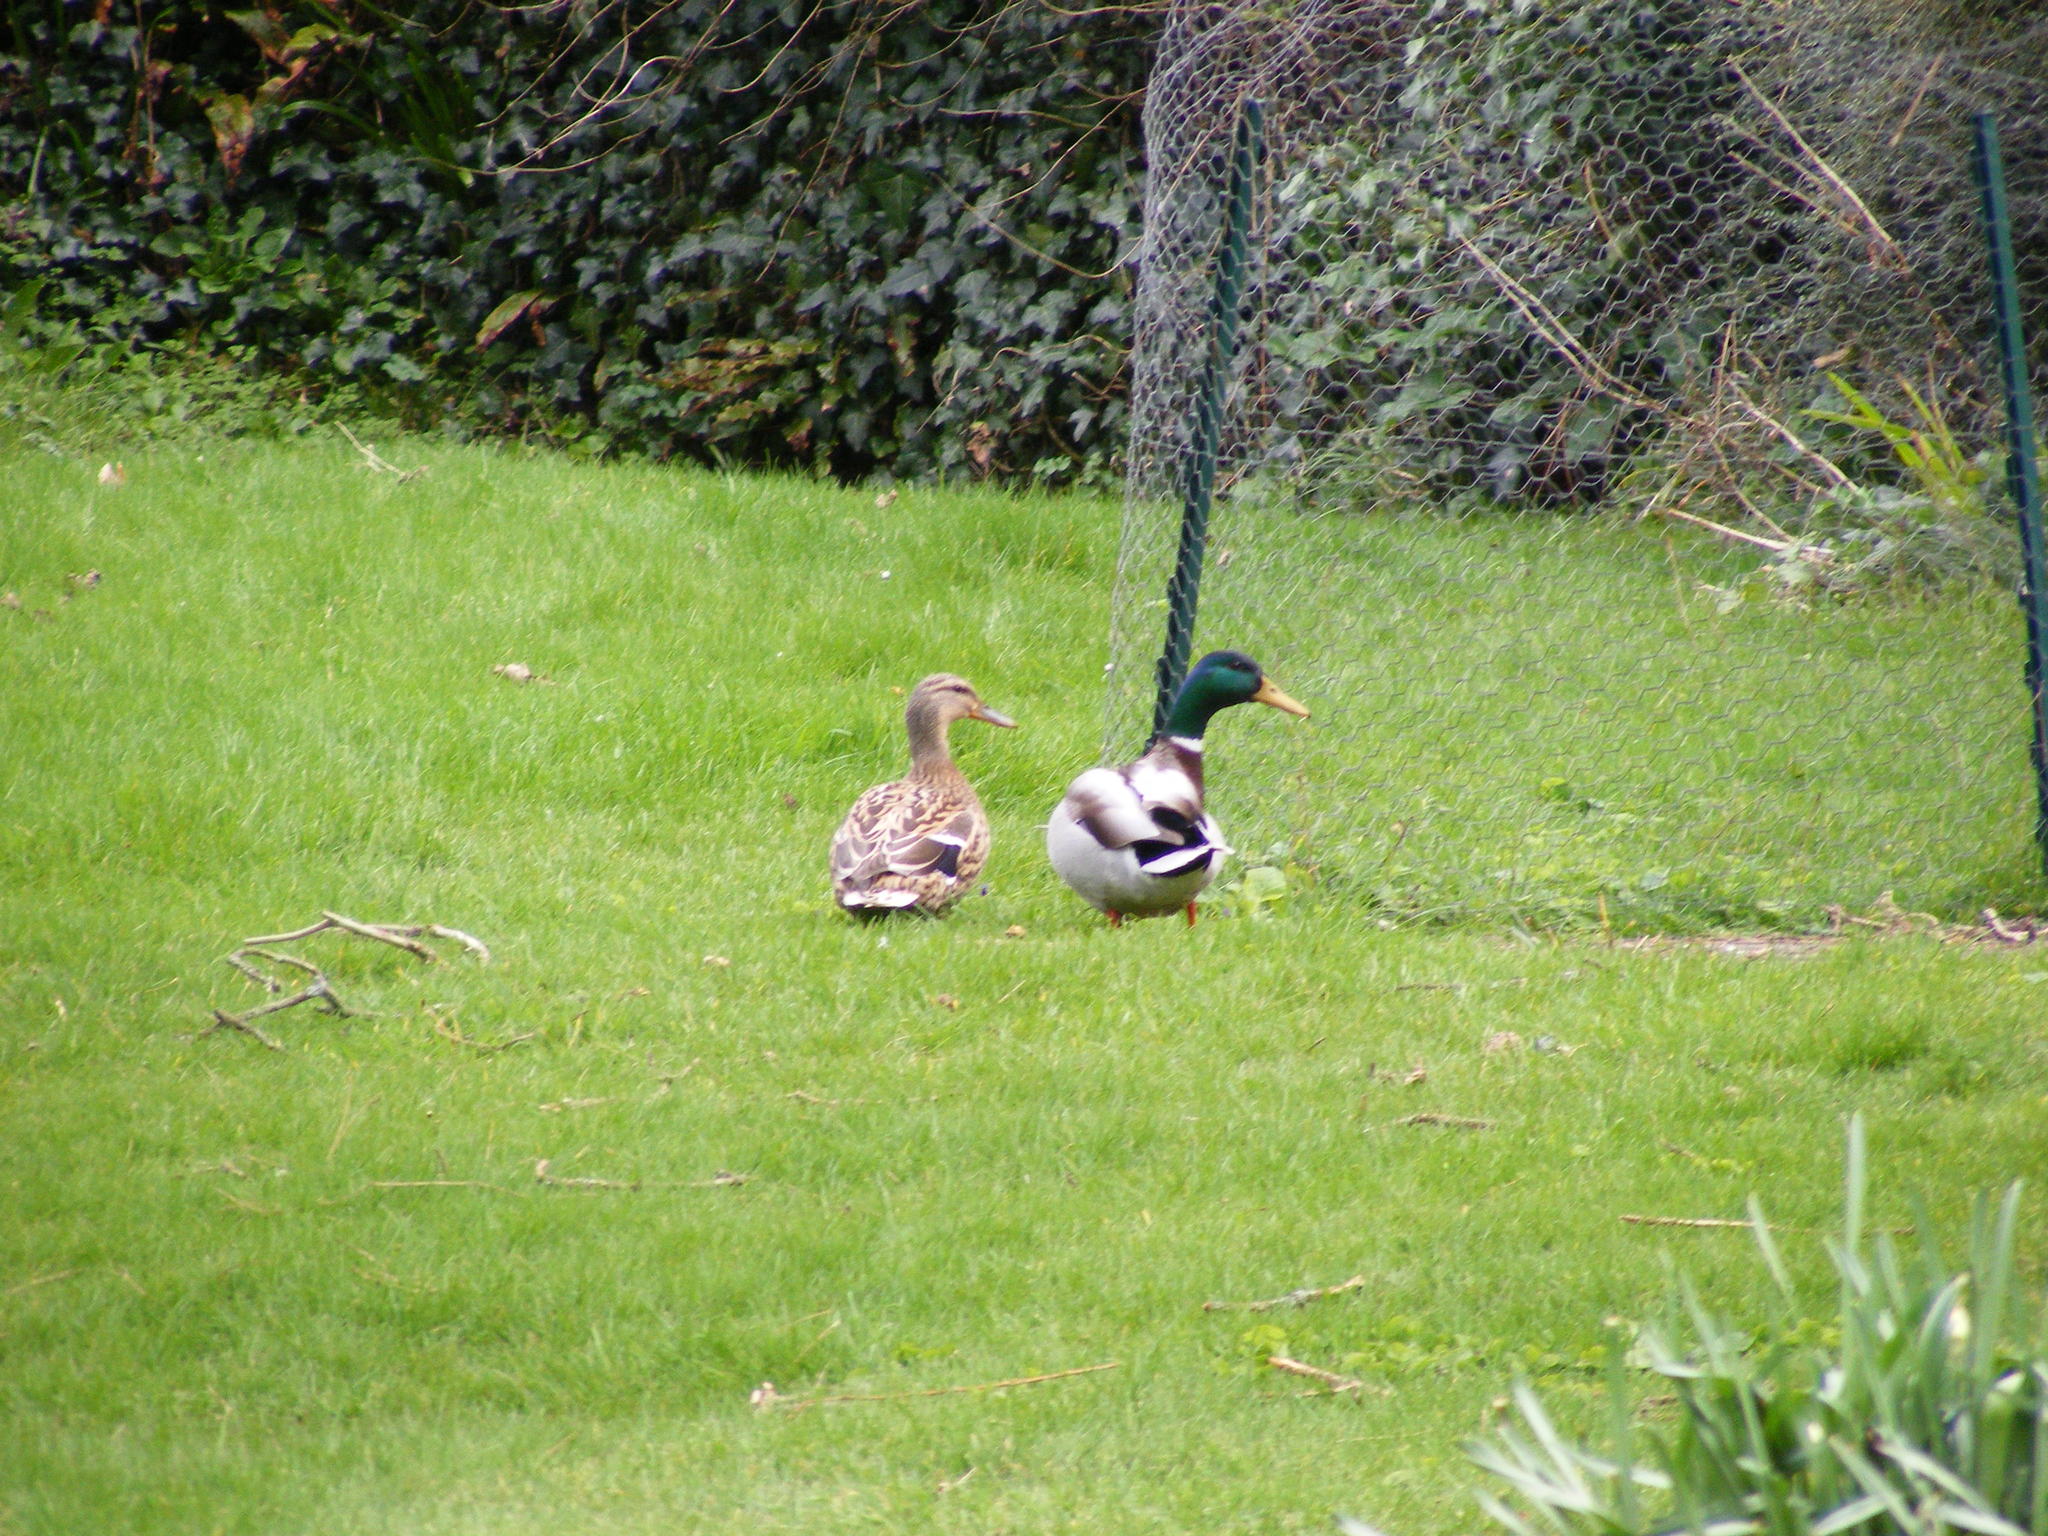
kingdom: Animalia
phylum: Chordata
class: Aves
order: Anseriformes
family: Anatidae
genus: Anas
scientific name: Anas platyrhynchos
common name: Mallard
